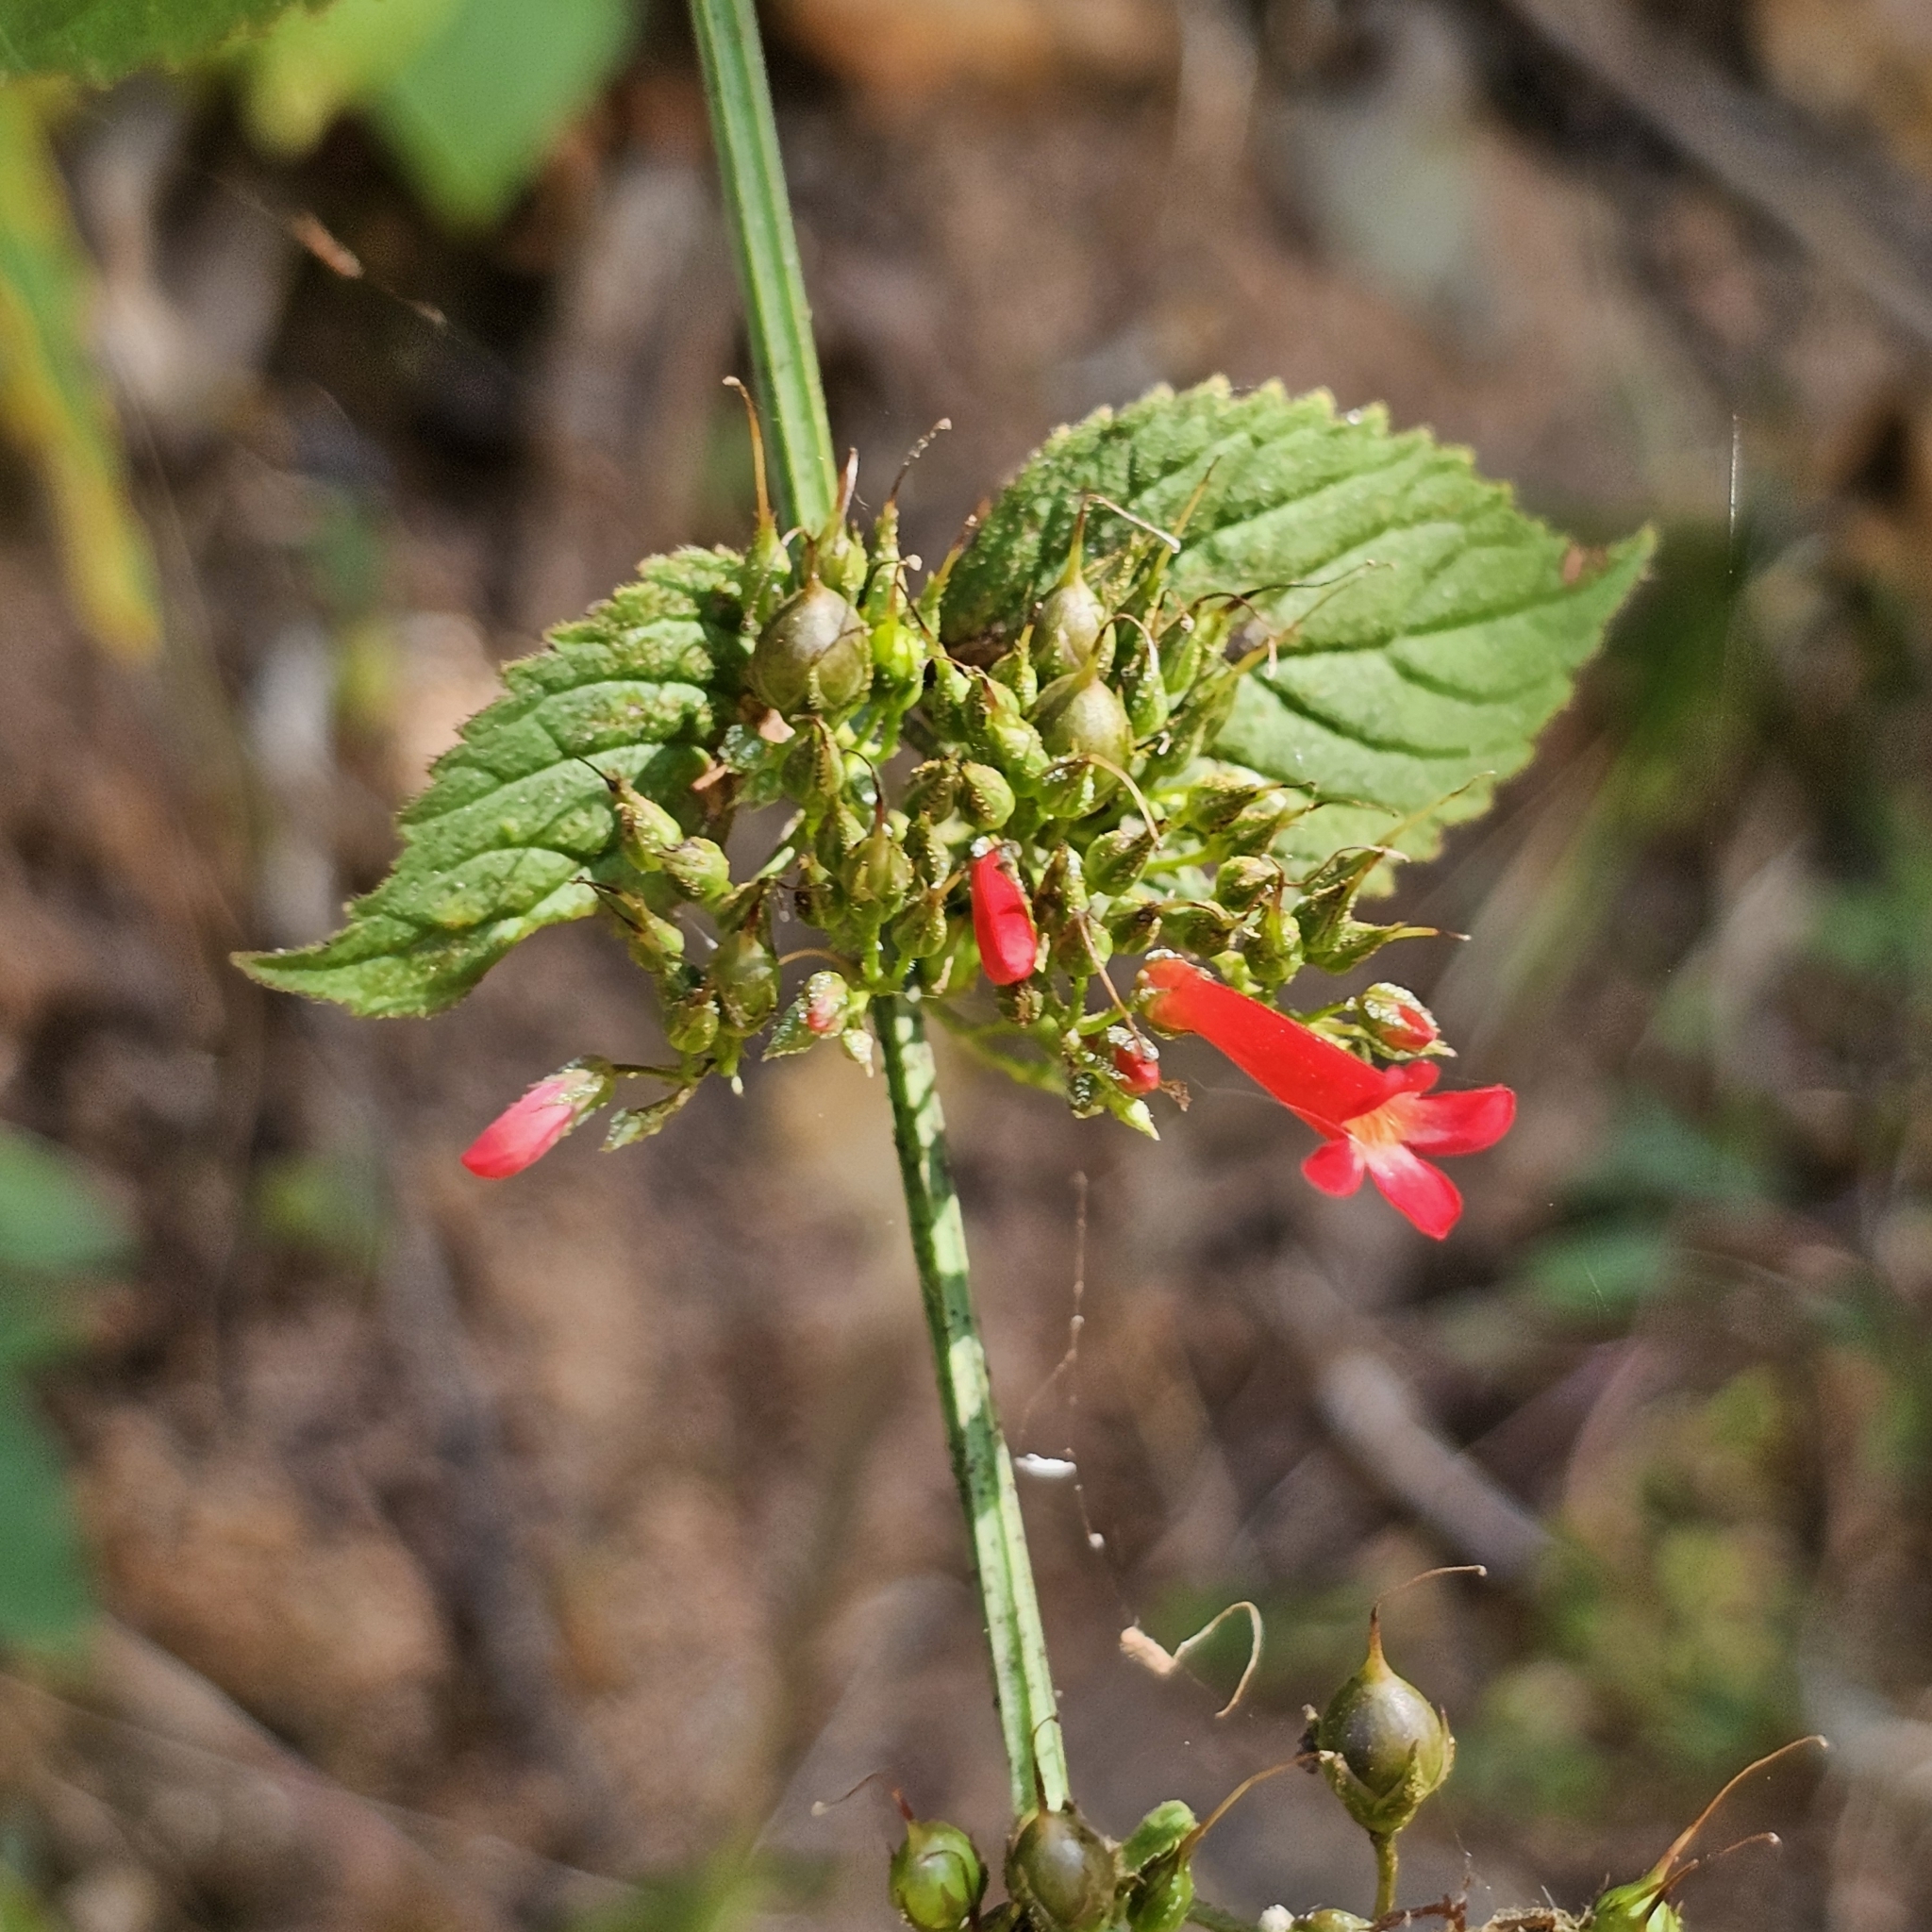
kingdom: Plantae
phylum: Tracheophyta
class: Magnoliopsida
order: Lamiales
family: Plantaginaceae
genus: Russelia
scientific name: Russelia sarmentosa
